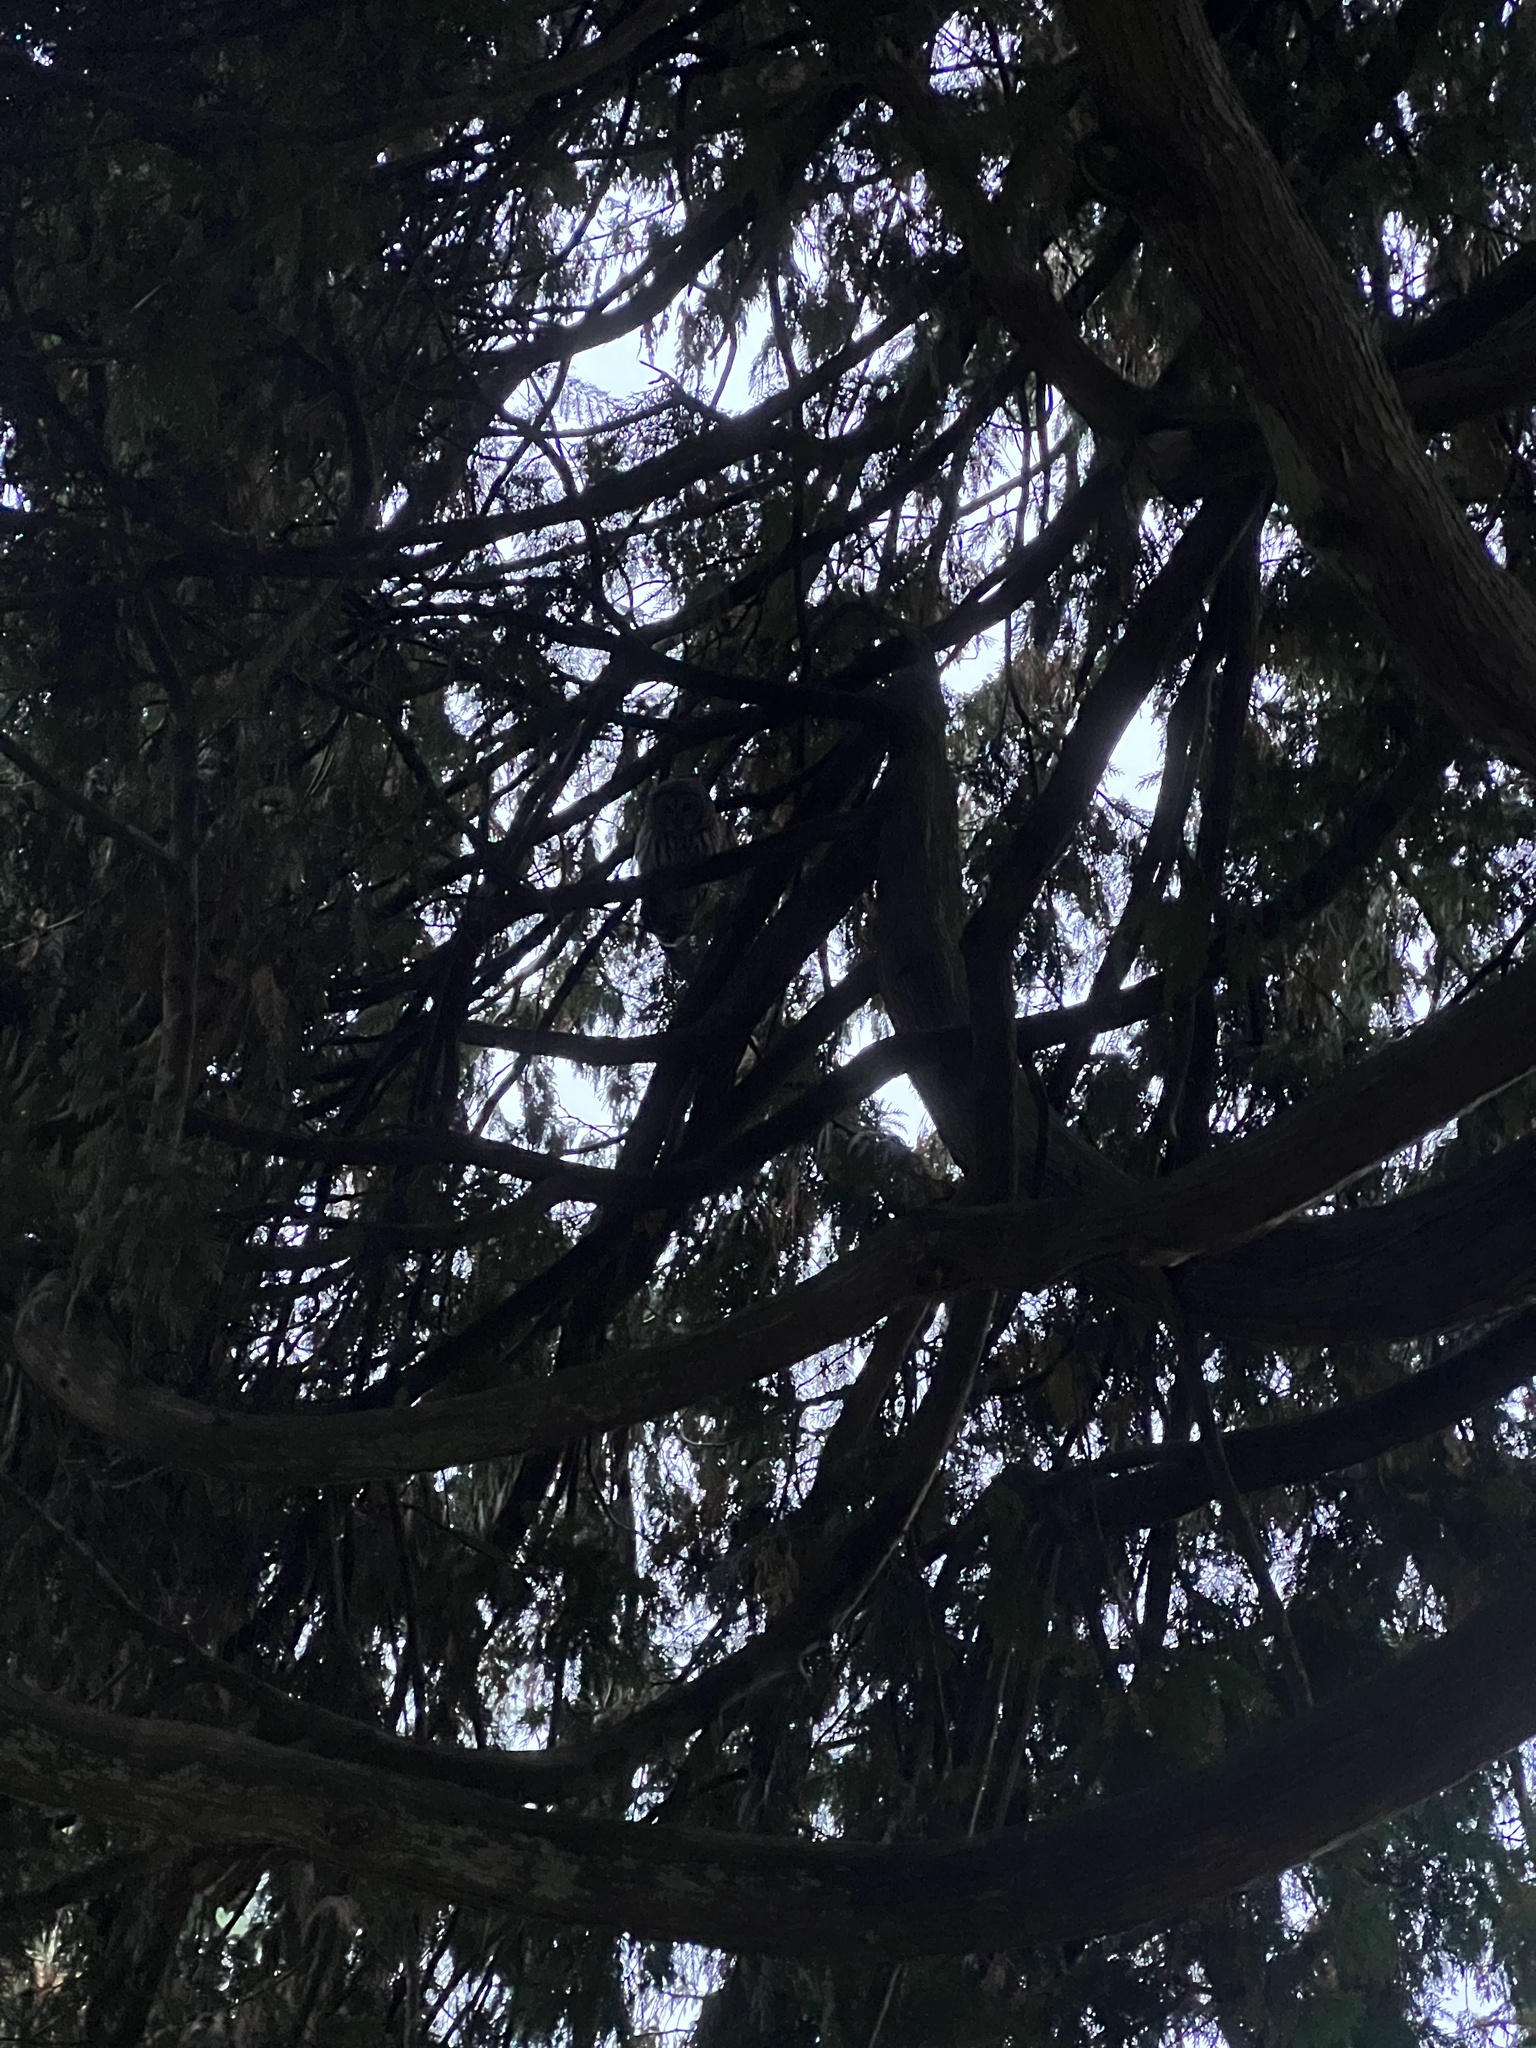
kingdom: Animalia
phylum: Chordata
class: Aves
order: Strigiformes
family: Strigidae
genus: Strix
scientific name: Strix varia
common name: Barred owl
